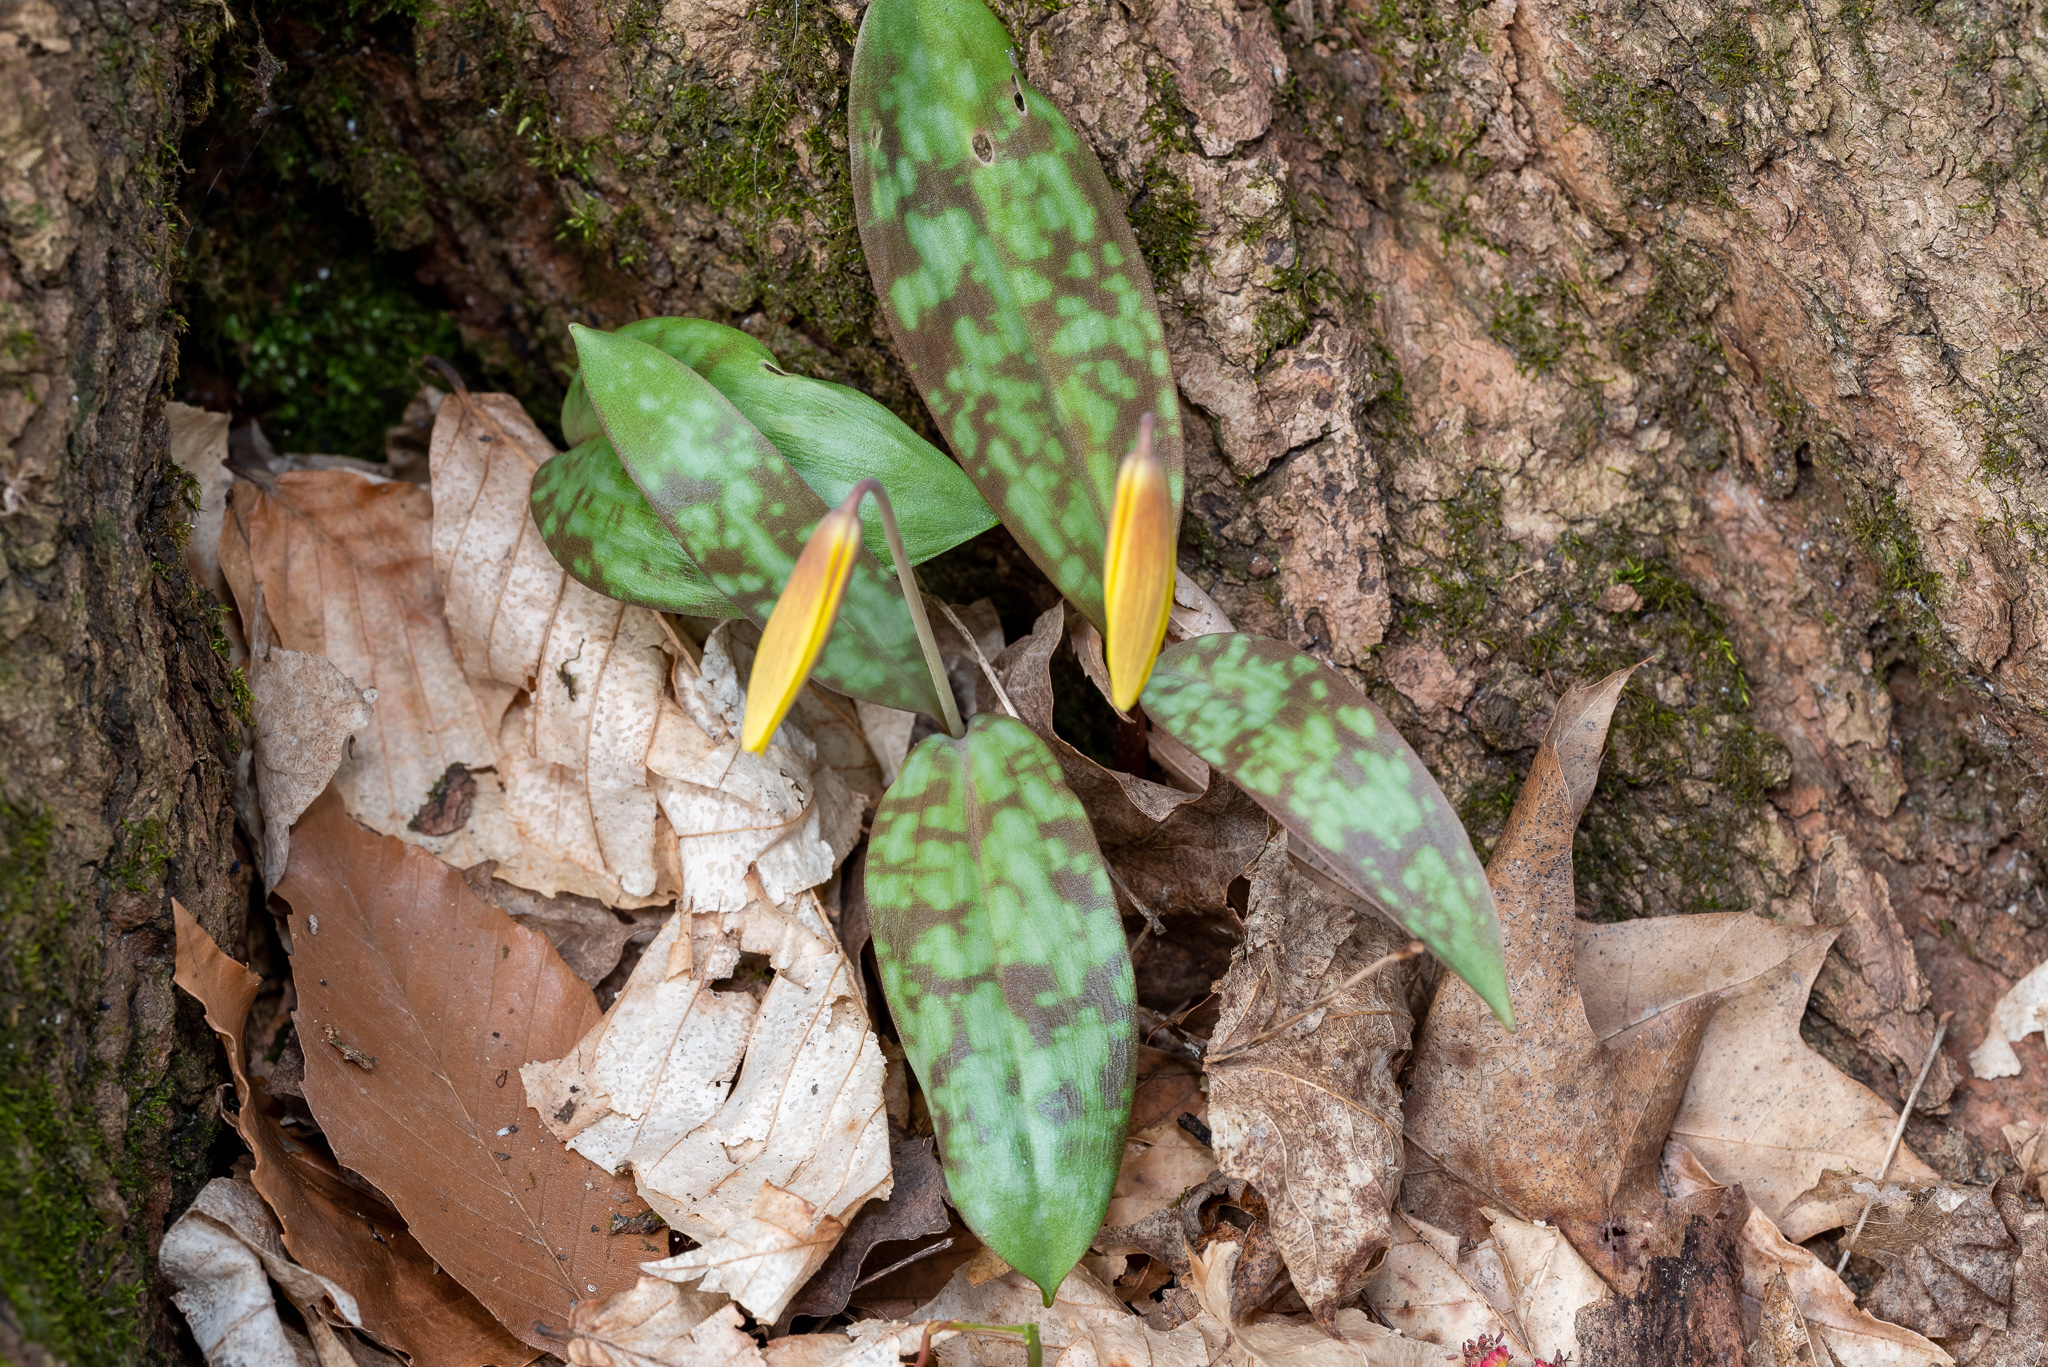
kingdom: Plantae
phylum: Tracheophyta
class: Liliopsida
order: Liliales
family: Liliaceae
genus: Erythronium
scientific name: Erythronium americanum
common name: Yellow adder's-tongue
